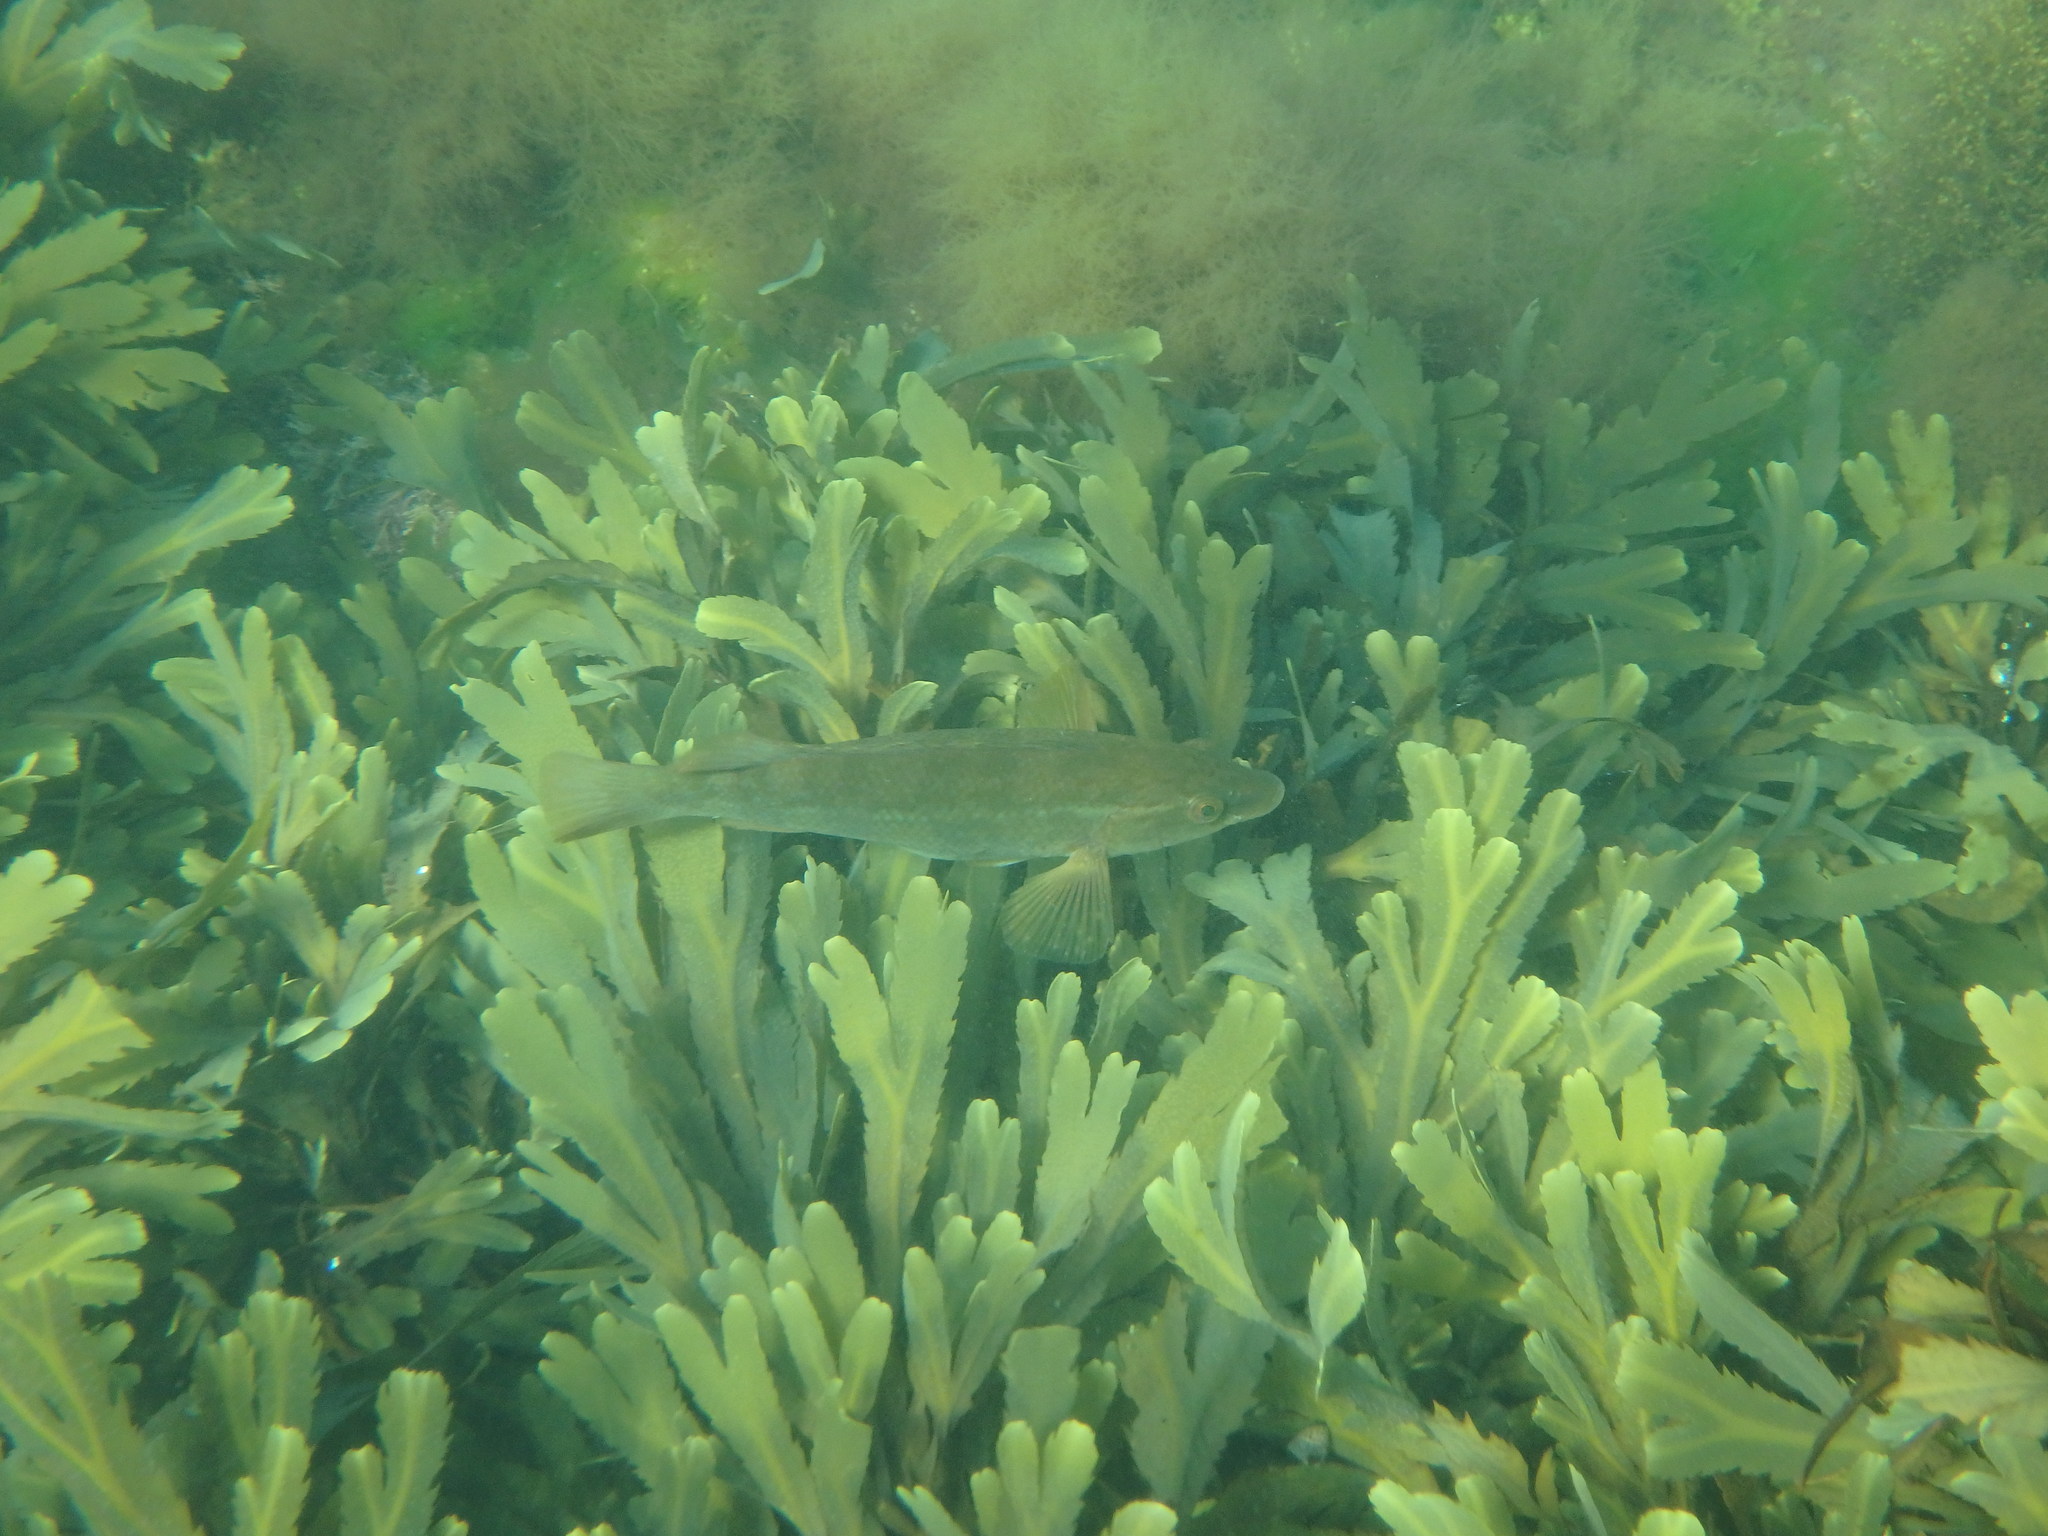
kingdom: Animalia
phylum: Chordata
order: Perciformes
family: Labridae
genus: Labrus
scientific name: Labrus bergylta
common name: Ballan wrasse
